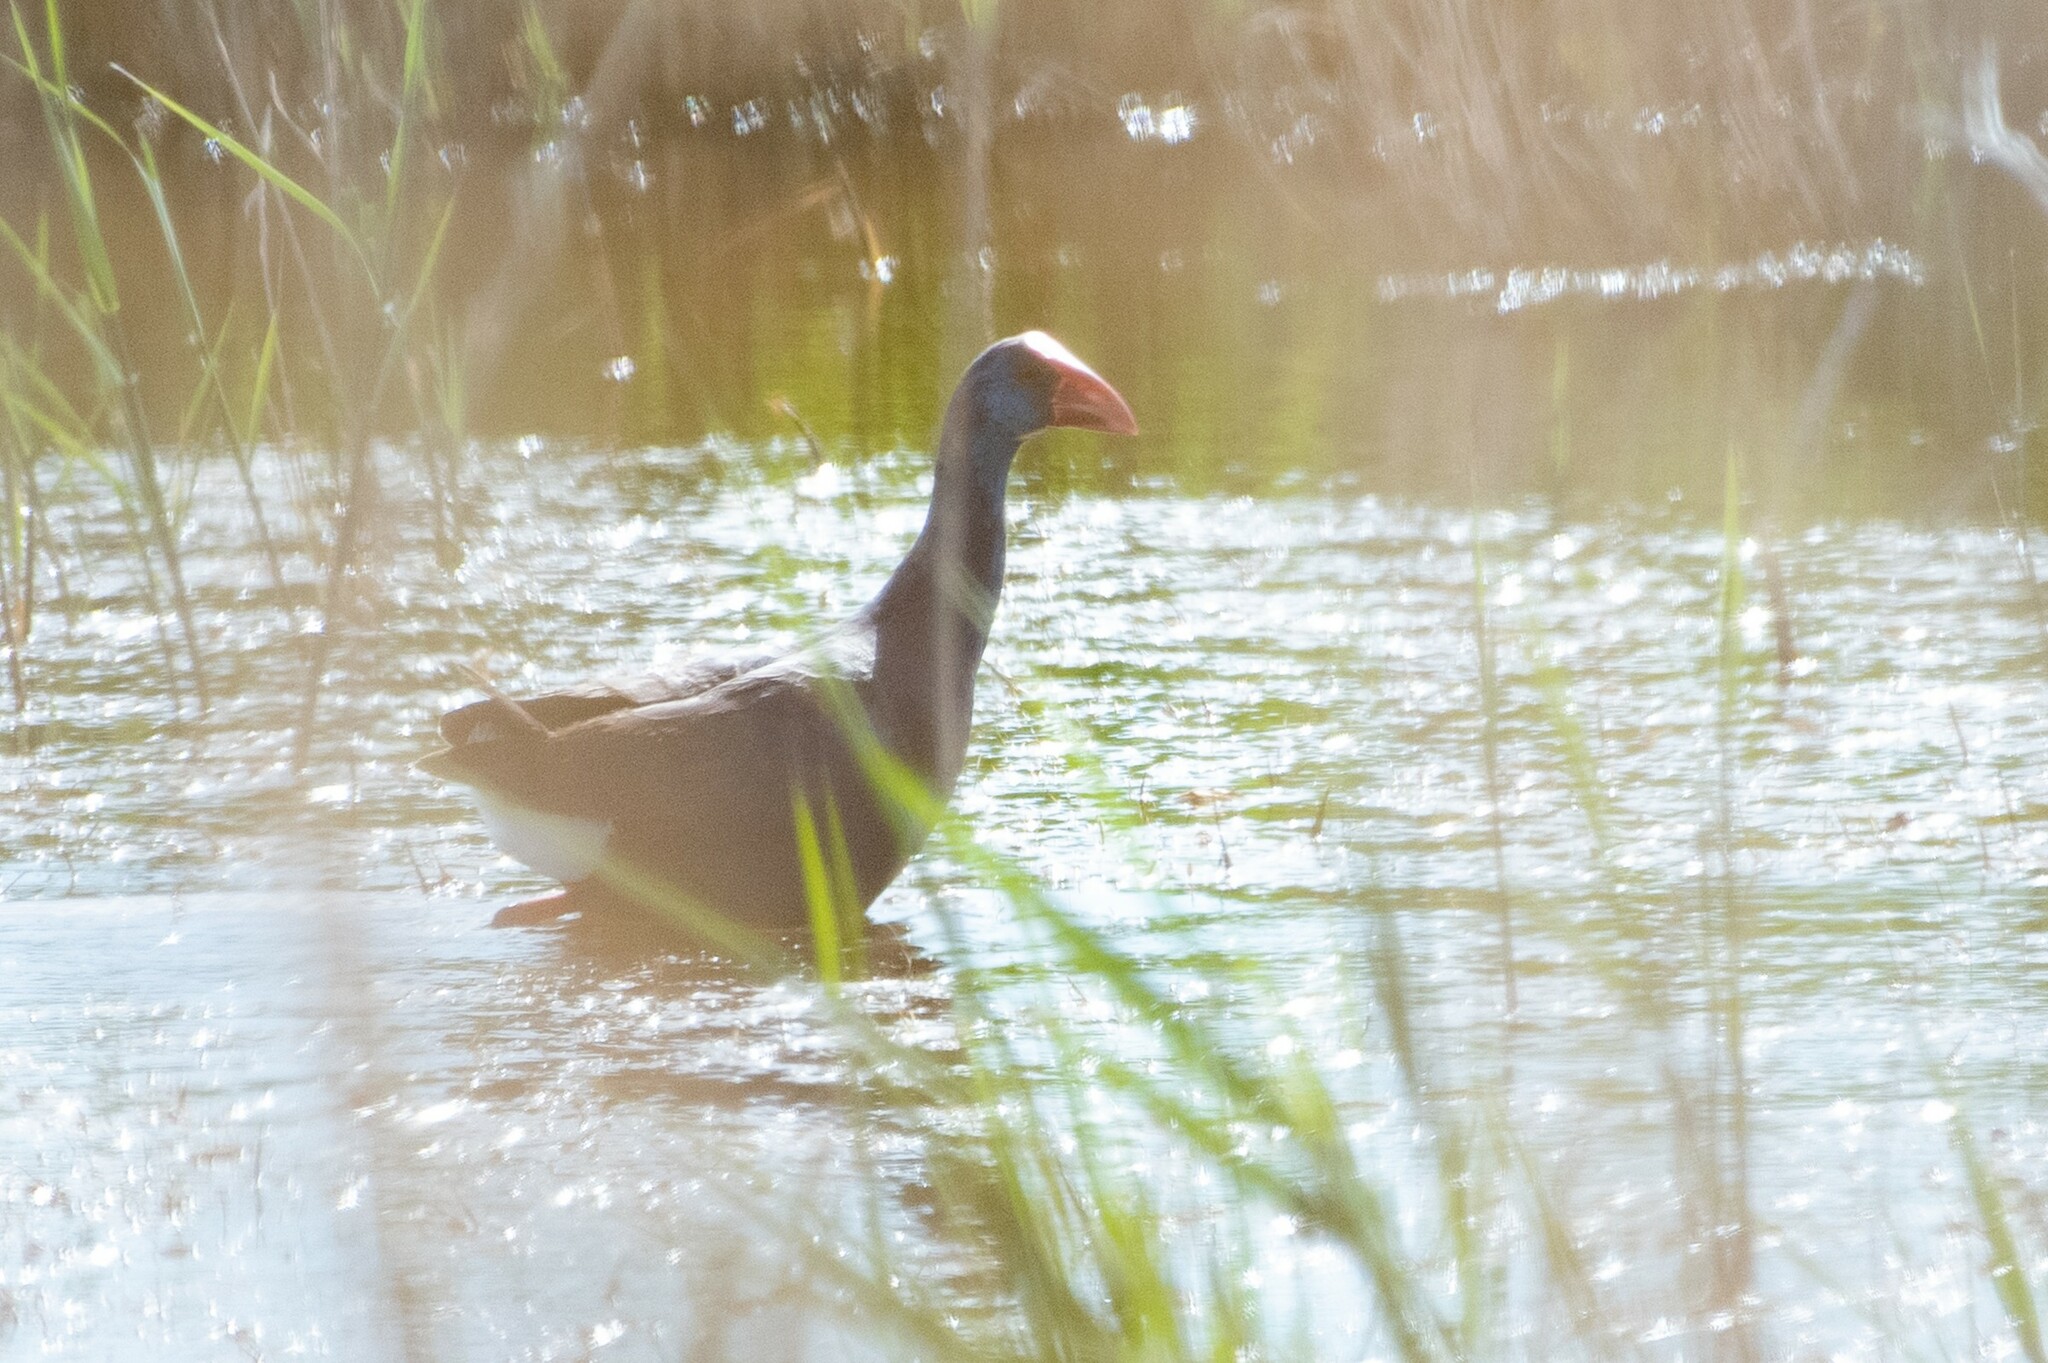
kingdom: Animalia
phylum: Chordata
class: Aves
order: Gruiformes
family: Rallidae
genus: Porphyrio
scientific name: Porphyrio porphyrio
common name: Purple swamphen
